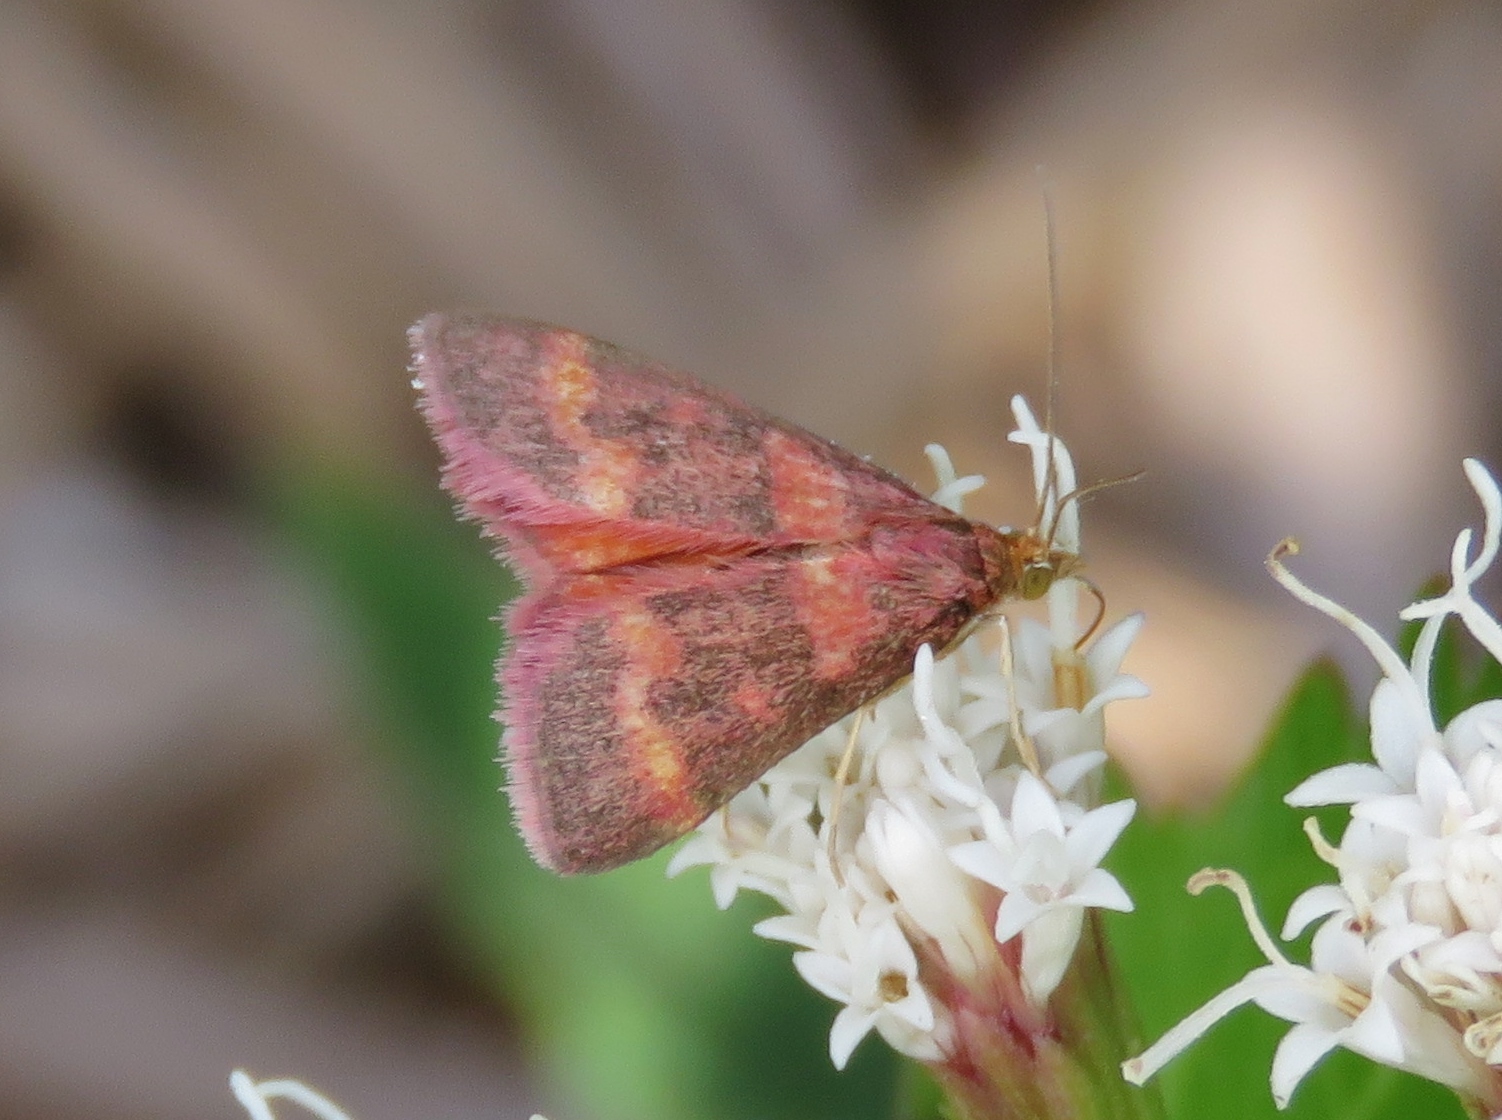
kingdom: Animalia
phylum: Arthropoda
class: Insecta
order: Lepidoptera
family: Crambidae
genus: Pyrausta
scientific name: Pyrausta tyralis
